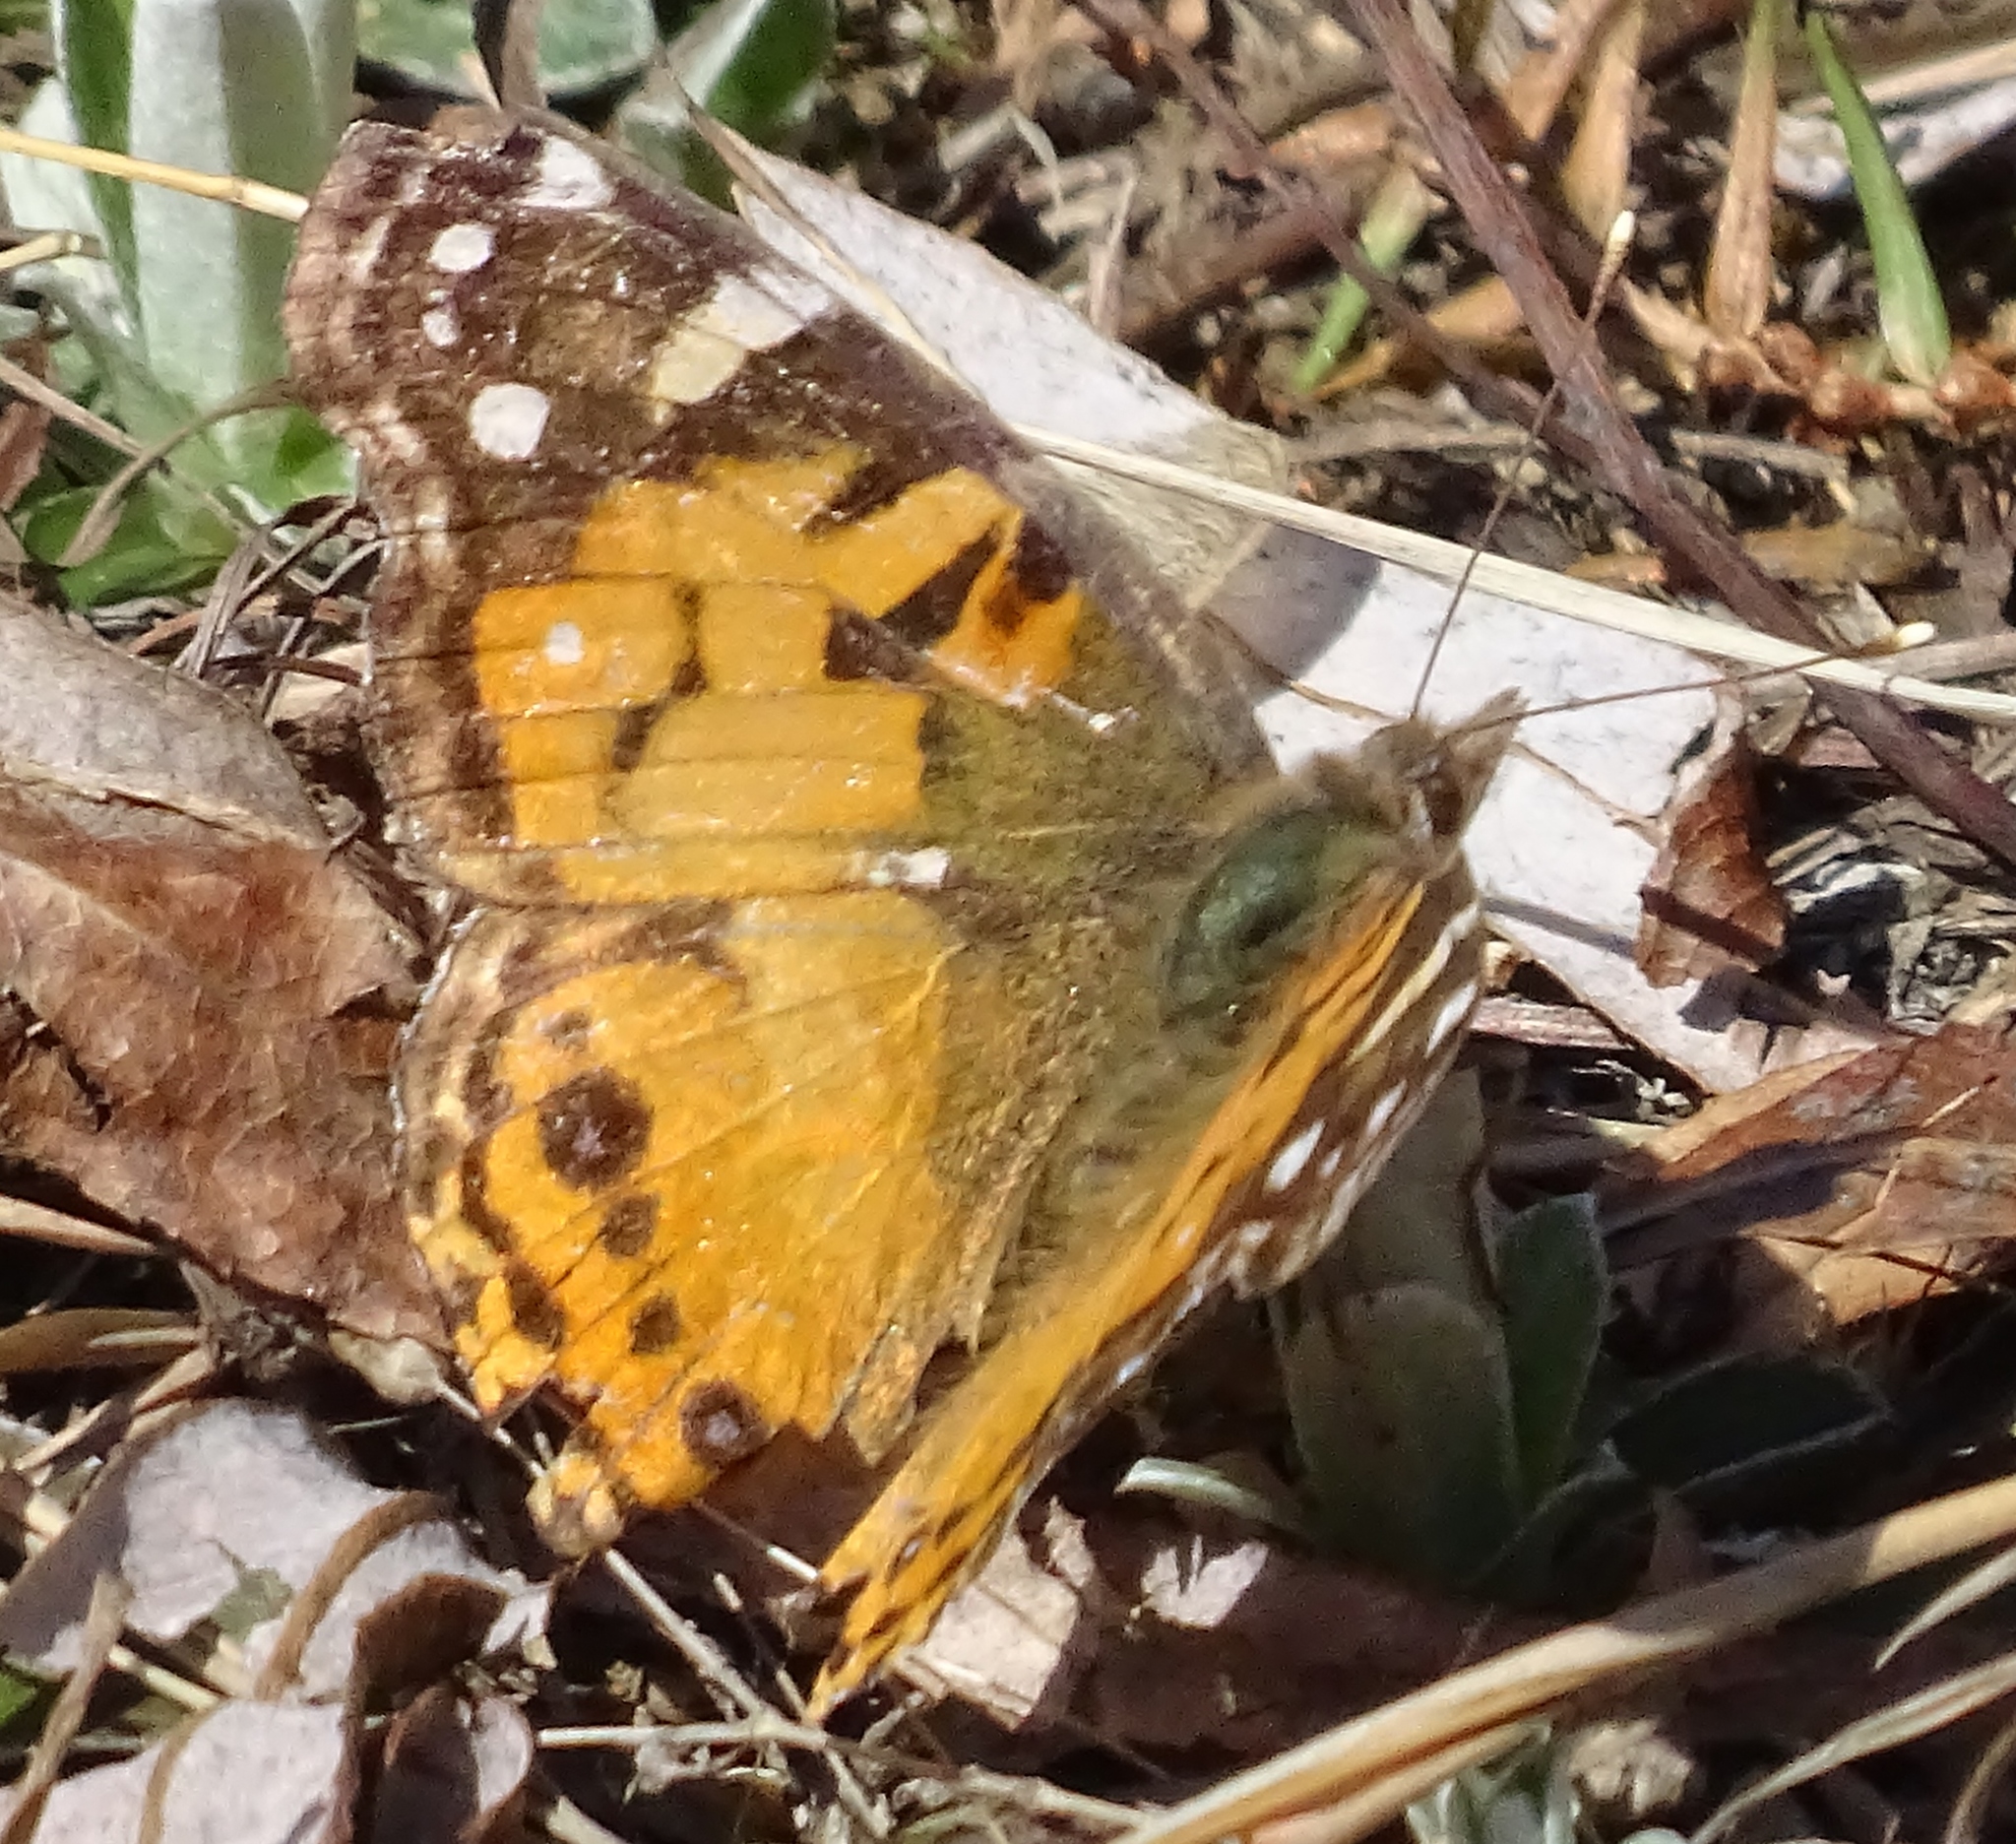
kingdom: Animalia
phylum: Arthropoda
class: Insecta
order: Lepidoptera
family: Nymphalidae
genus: Vanessa
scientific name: Vanessa virginiensis
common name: American lady
